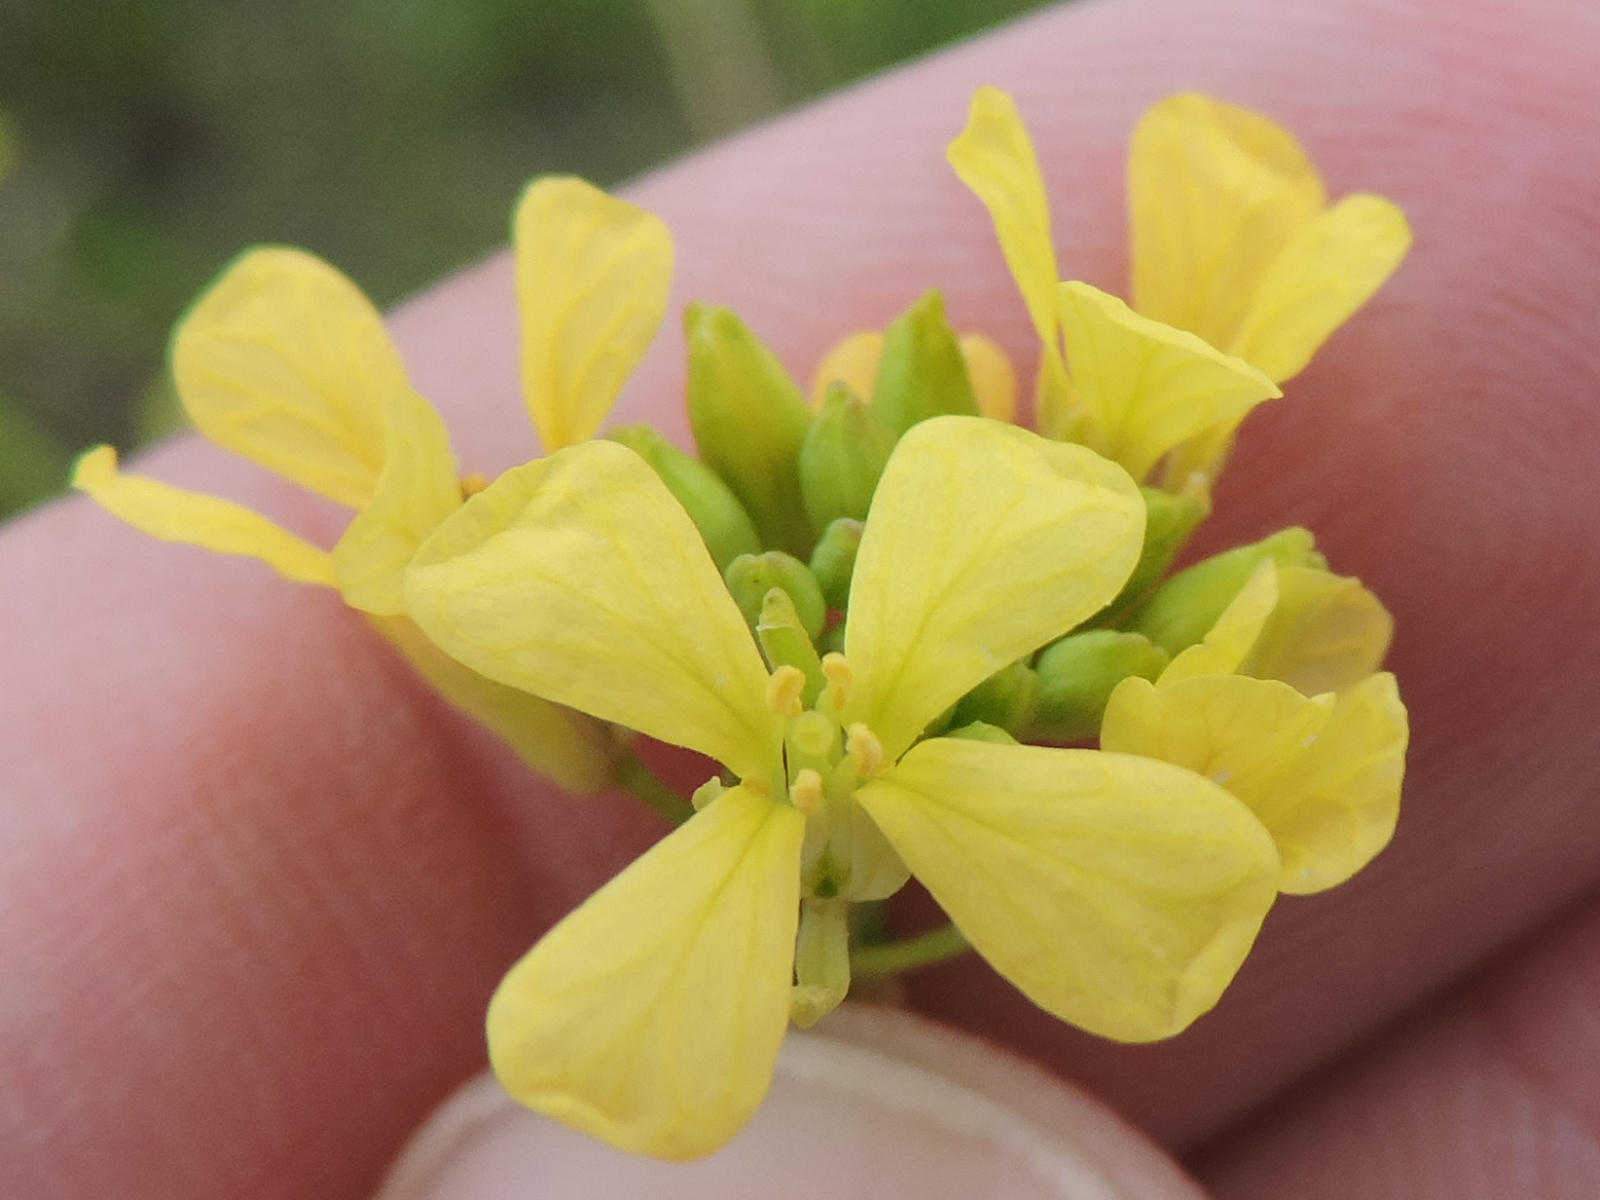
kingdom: Plantae
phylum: Tracheophyta
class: Magnoliopsida
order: Brassicales
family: Brassicaceae
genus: Rapistrum
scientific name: Rapistrum rugosum
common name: Annual bastardcabbage
